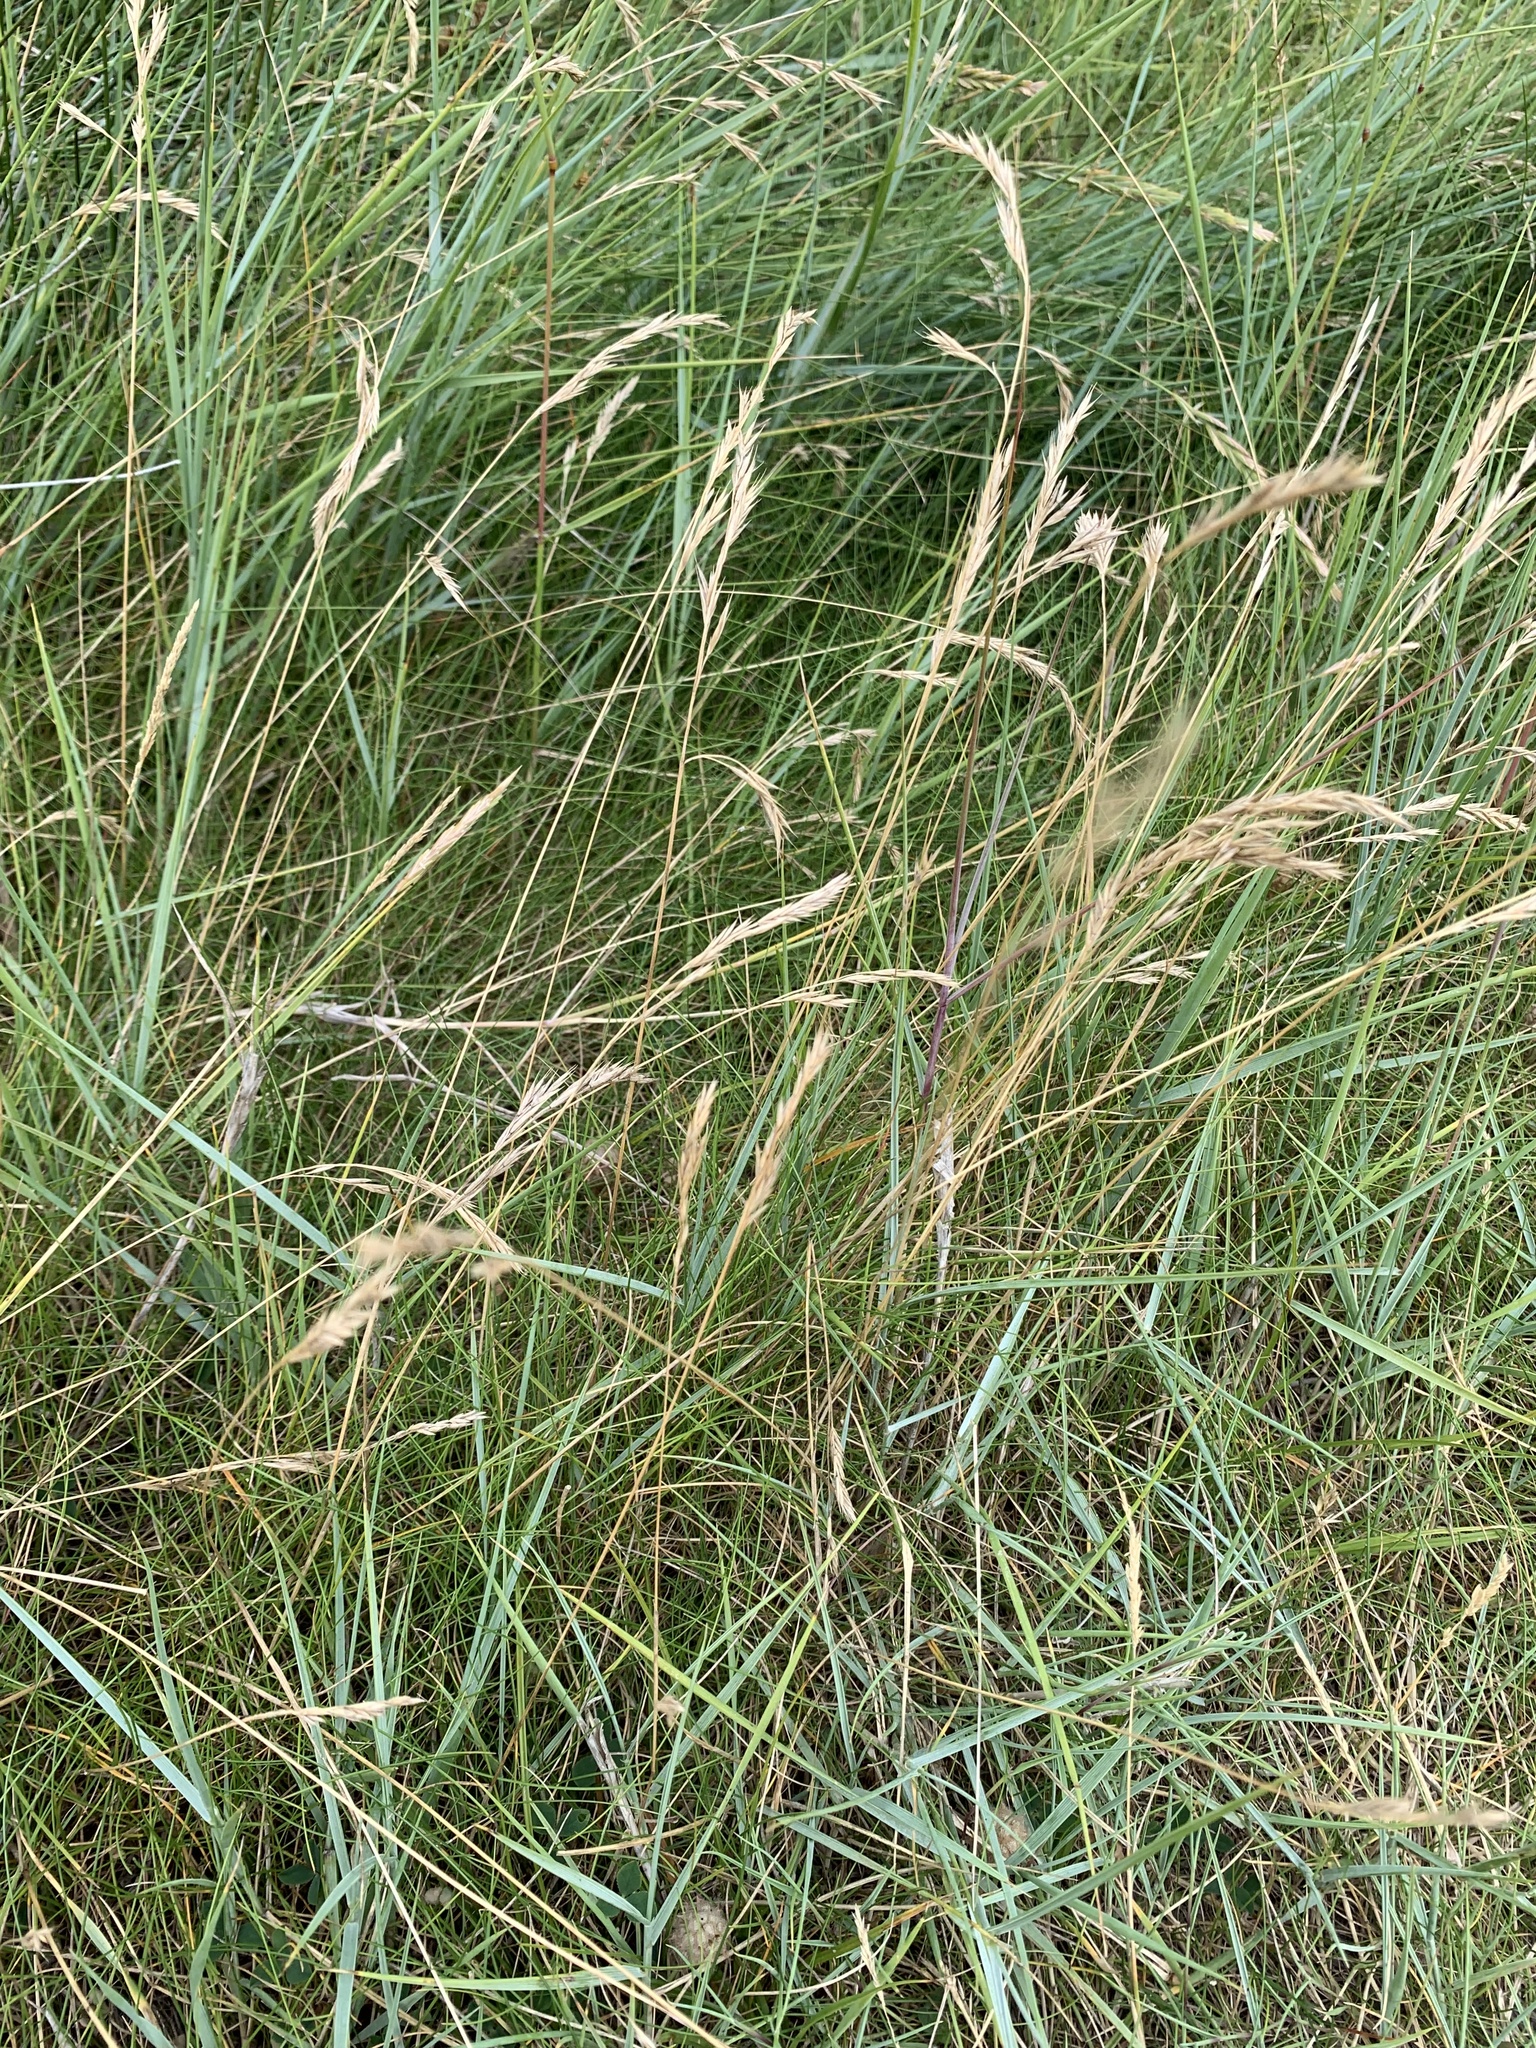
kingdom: Plantae
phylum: Tracheophyta
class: Liliopsida
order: Poales
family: Poaceae
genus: Festuca
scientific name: Festuca rubra
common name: Red fescue
